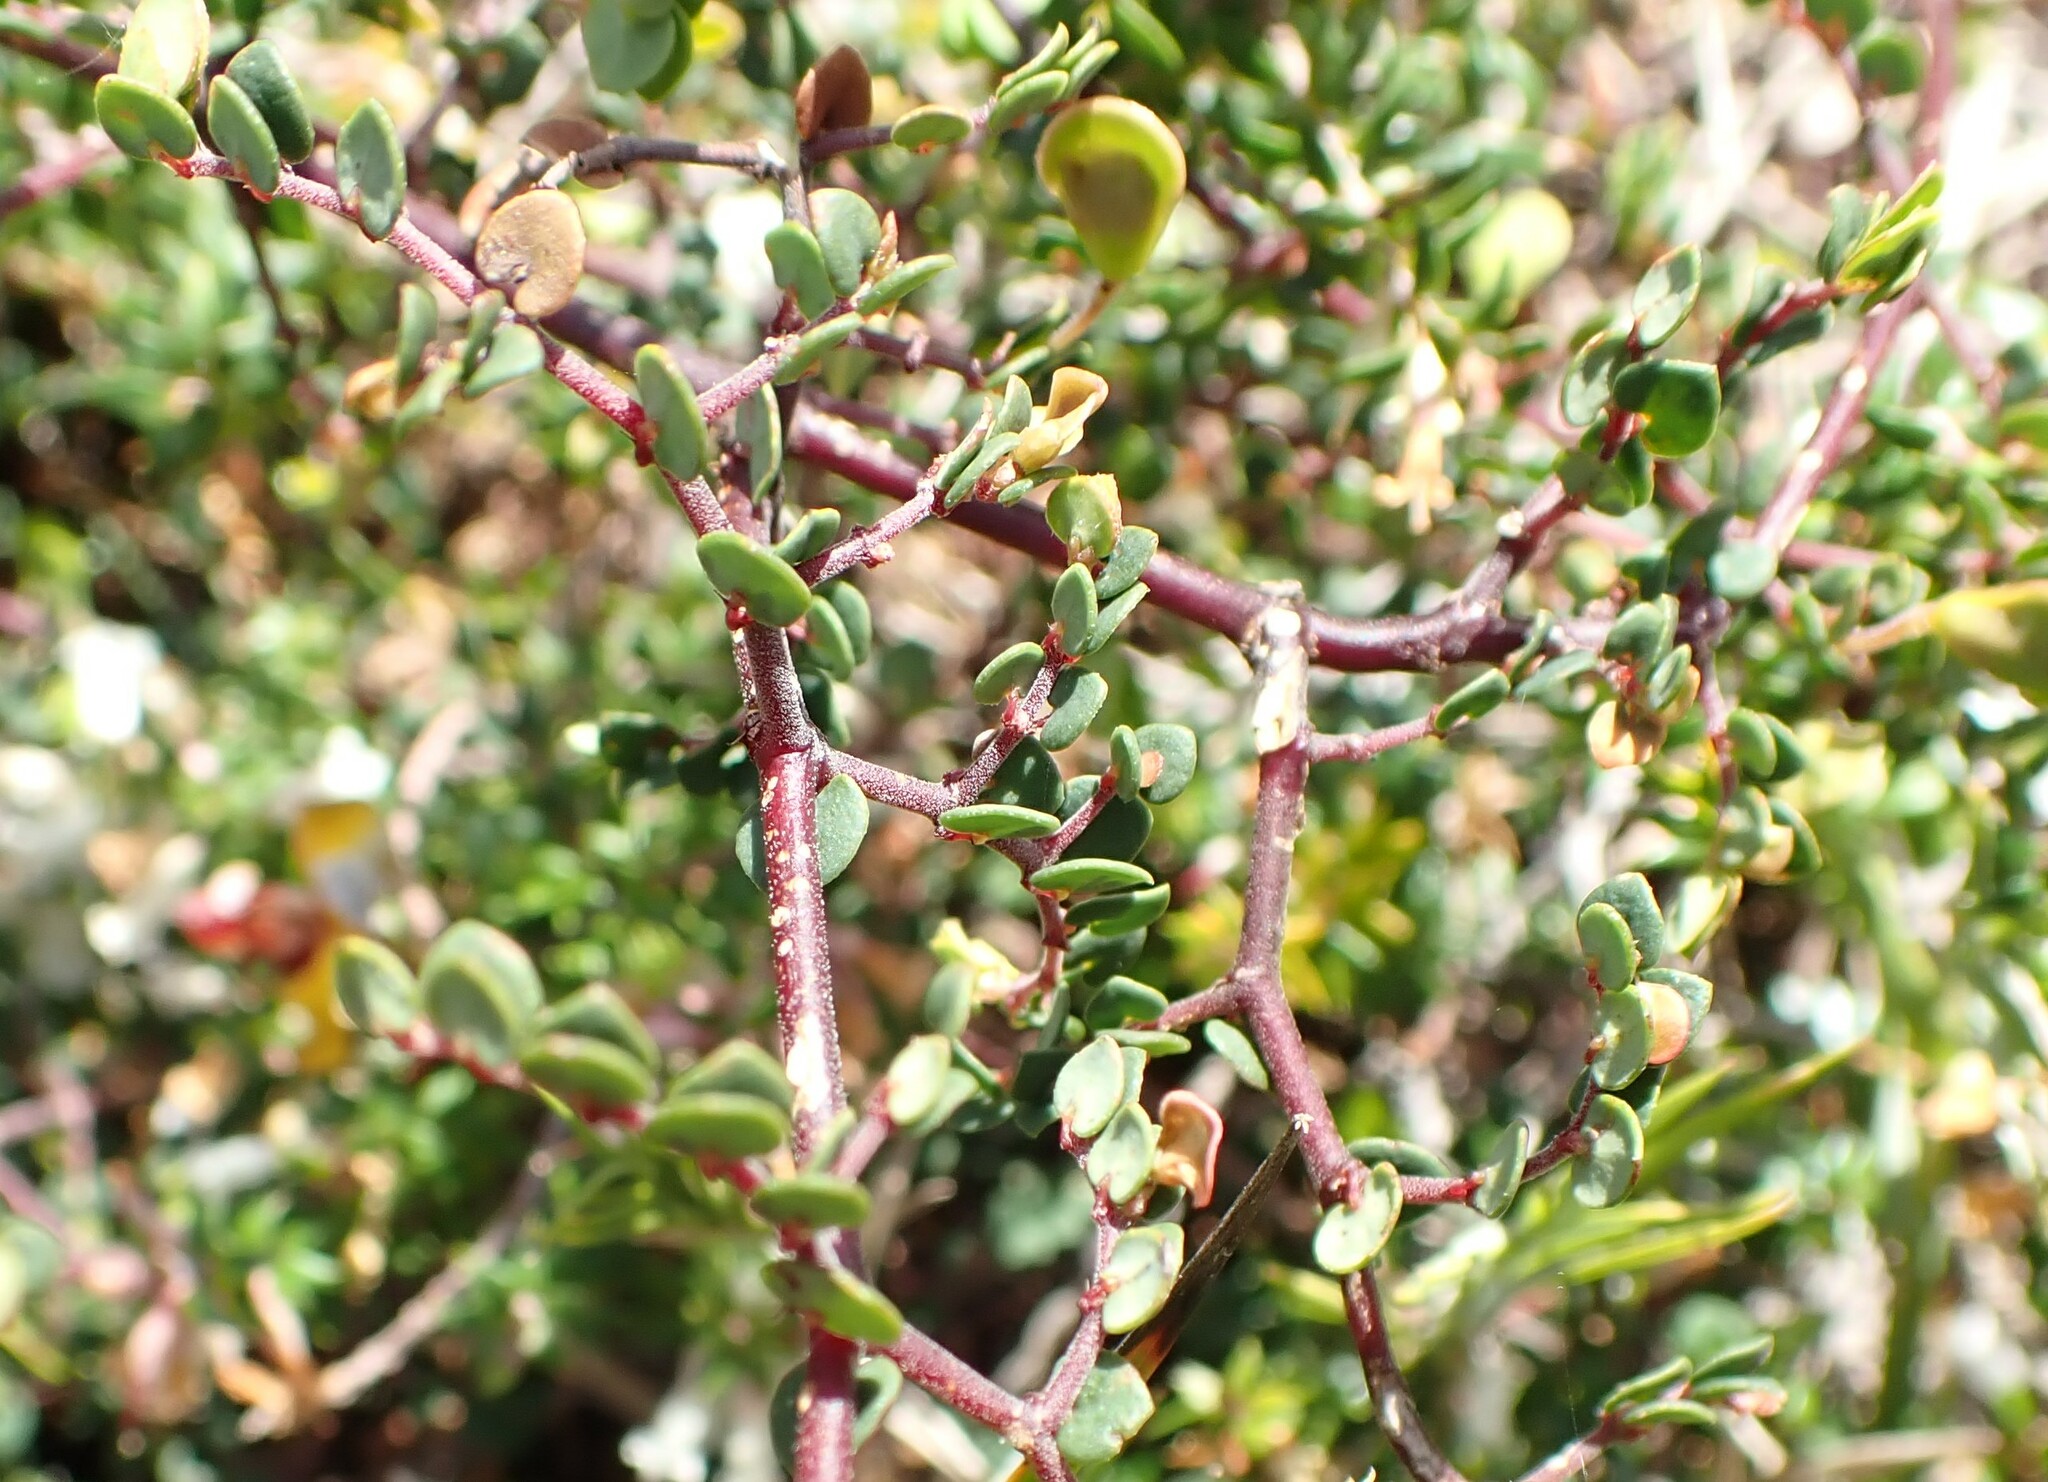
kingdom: Plantae
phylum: Tracheophyta
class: Magnoliopsida
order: Fabales
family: Fabaceae
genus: Bossiaea
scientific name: Bossiaea hendersonii
